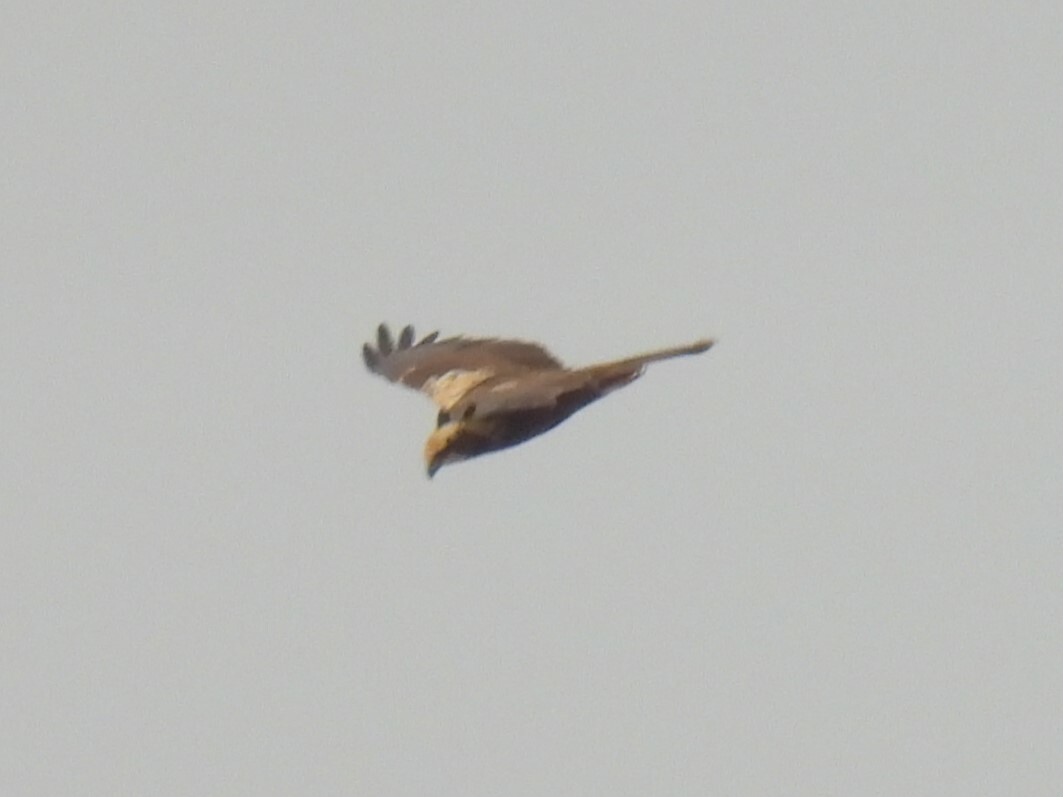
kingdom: Animalia
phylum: Chordata
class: Aves
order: Accipitriformes
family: Accipitridae
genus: Circus
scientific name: Circus aeruginosus
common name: Western marsh harrier
